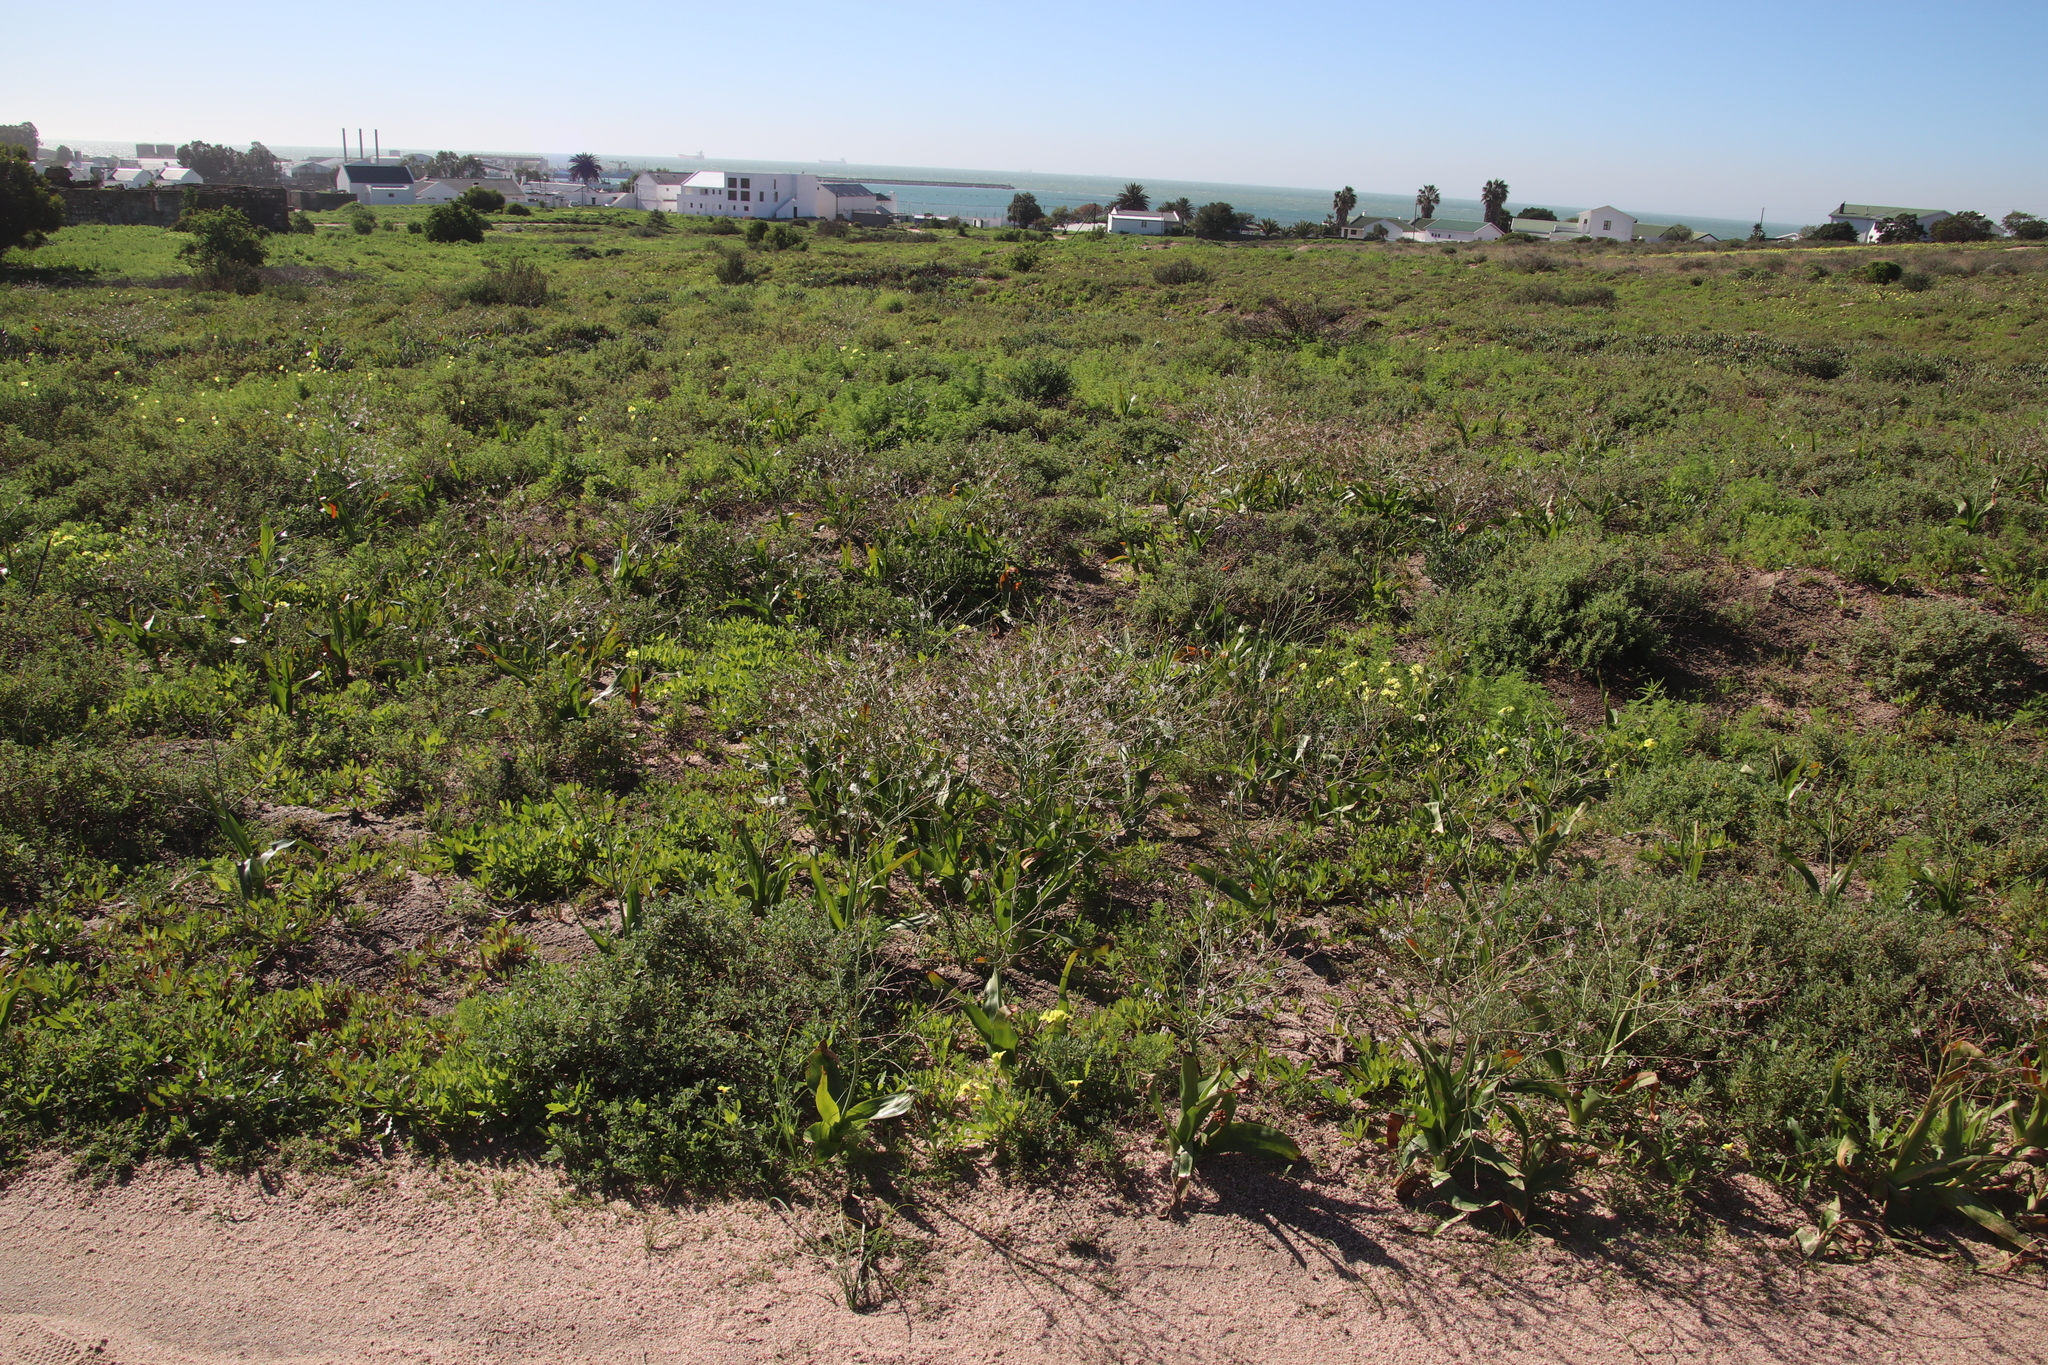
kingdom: Plantae
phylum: Tracheophyta
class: Liliopsida
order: Asparagales
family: Asphodelaceae
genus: Trachyandra
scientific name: Trachyandra muricata
